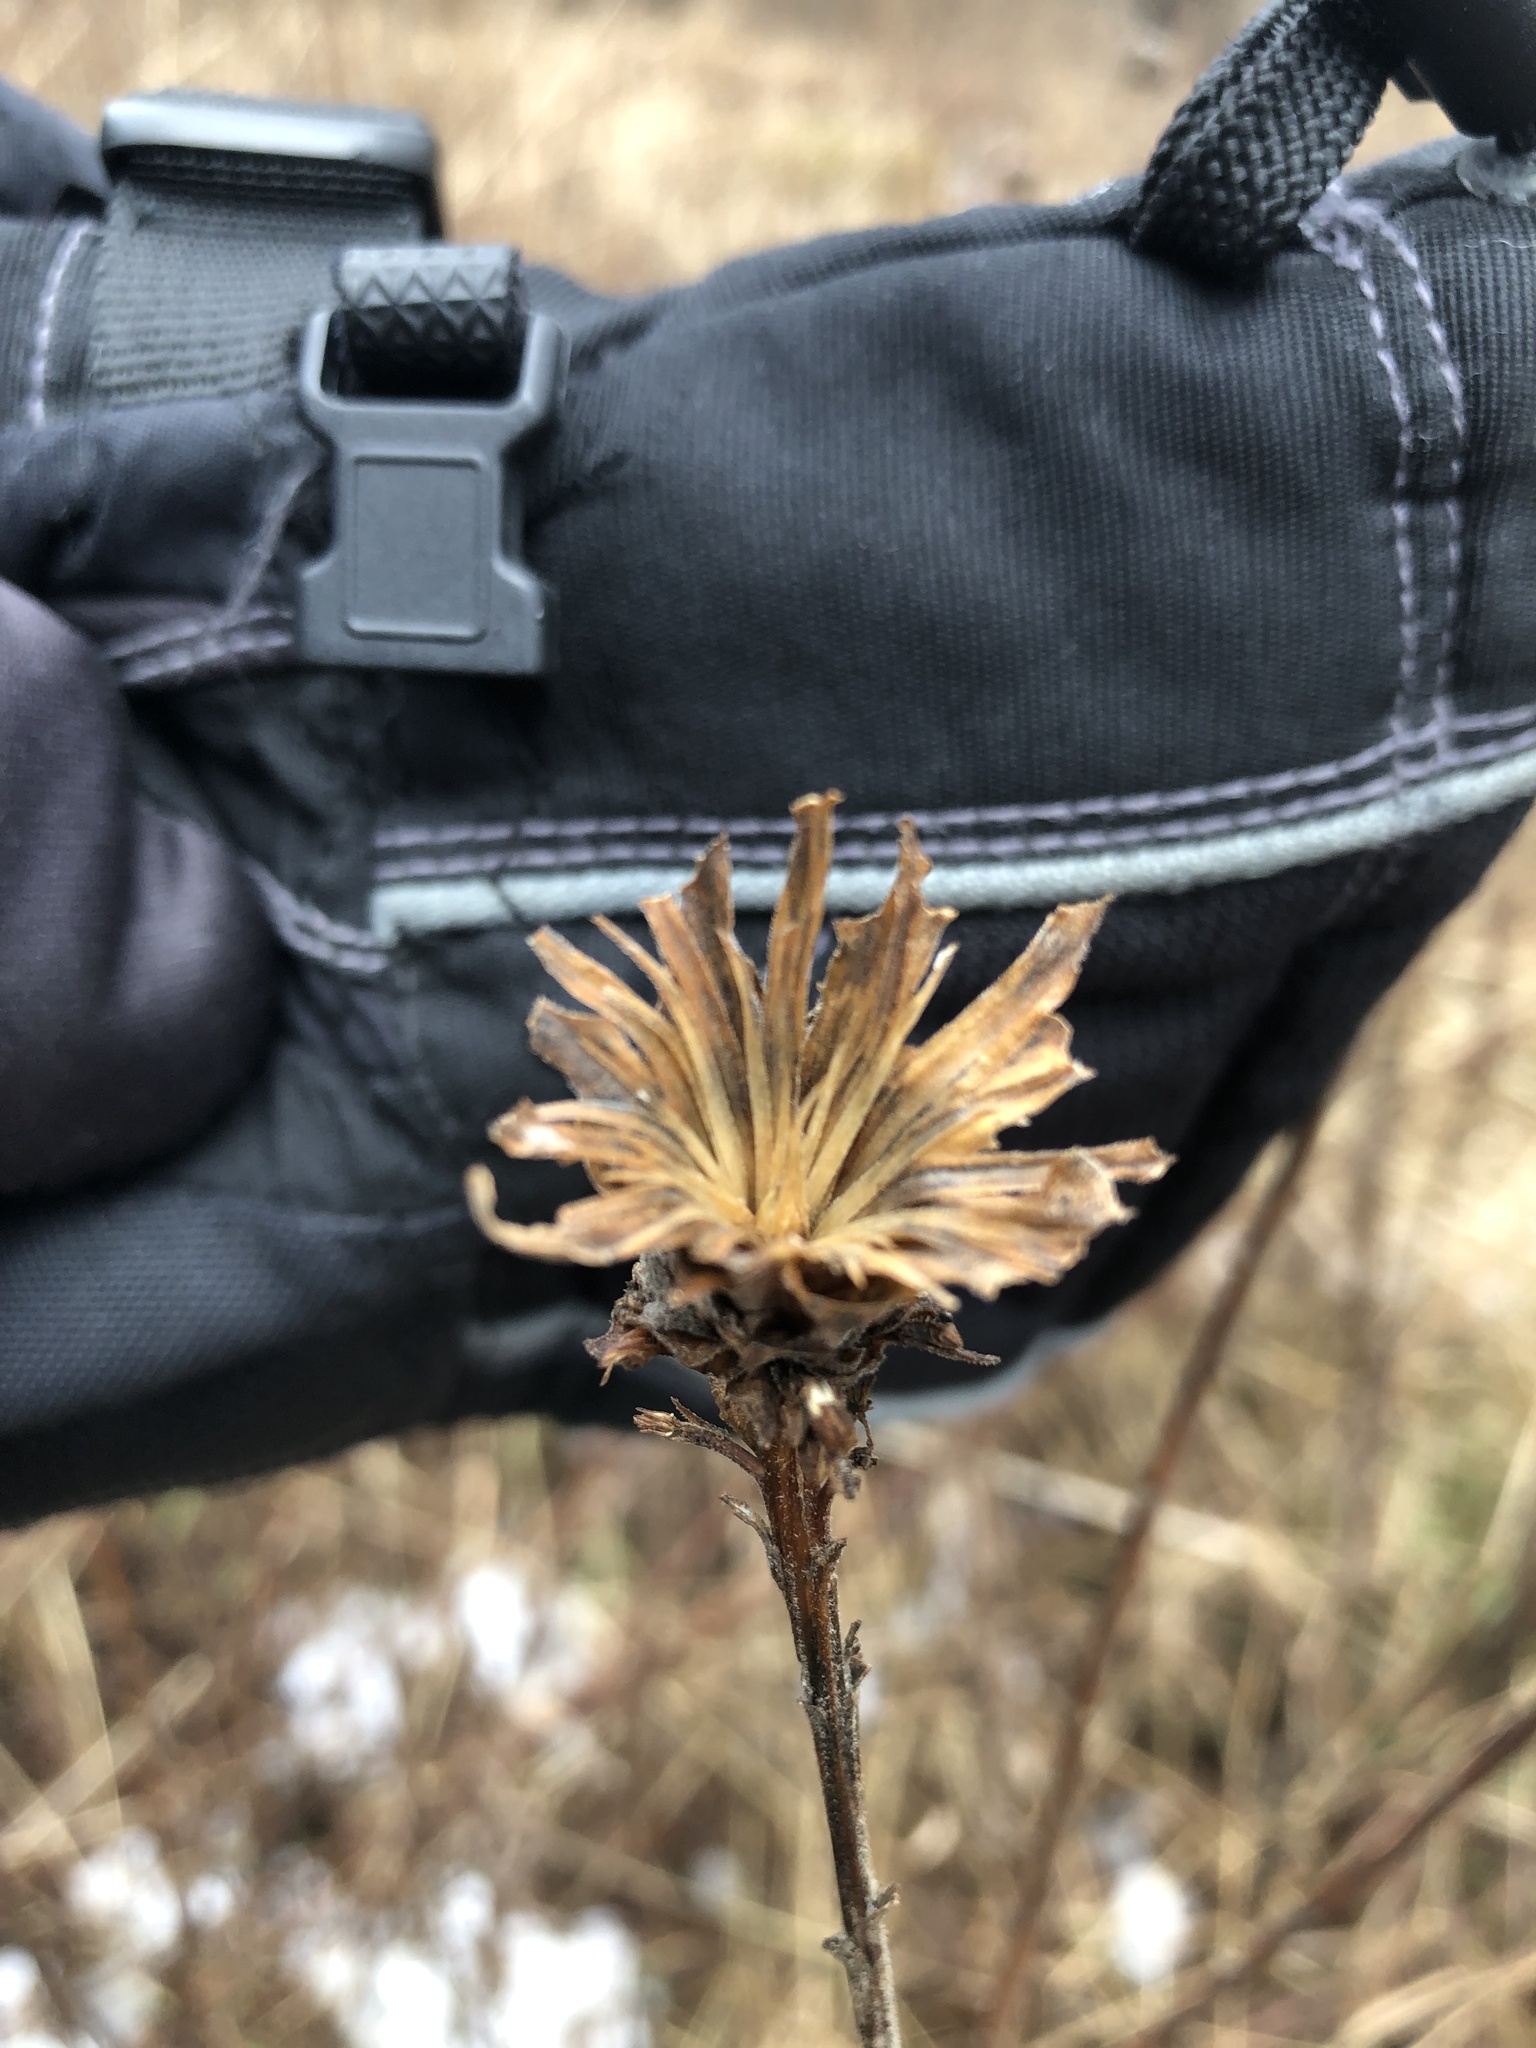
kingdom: Animalia
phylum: Arthropoda
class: Insecta
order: Diptera
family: Cecidomyiidae
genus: Rhopalomyia
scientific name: Rhopalomyia solidaginis
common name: Goldenrod bunch gall midge
